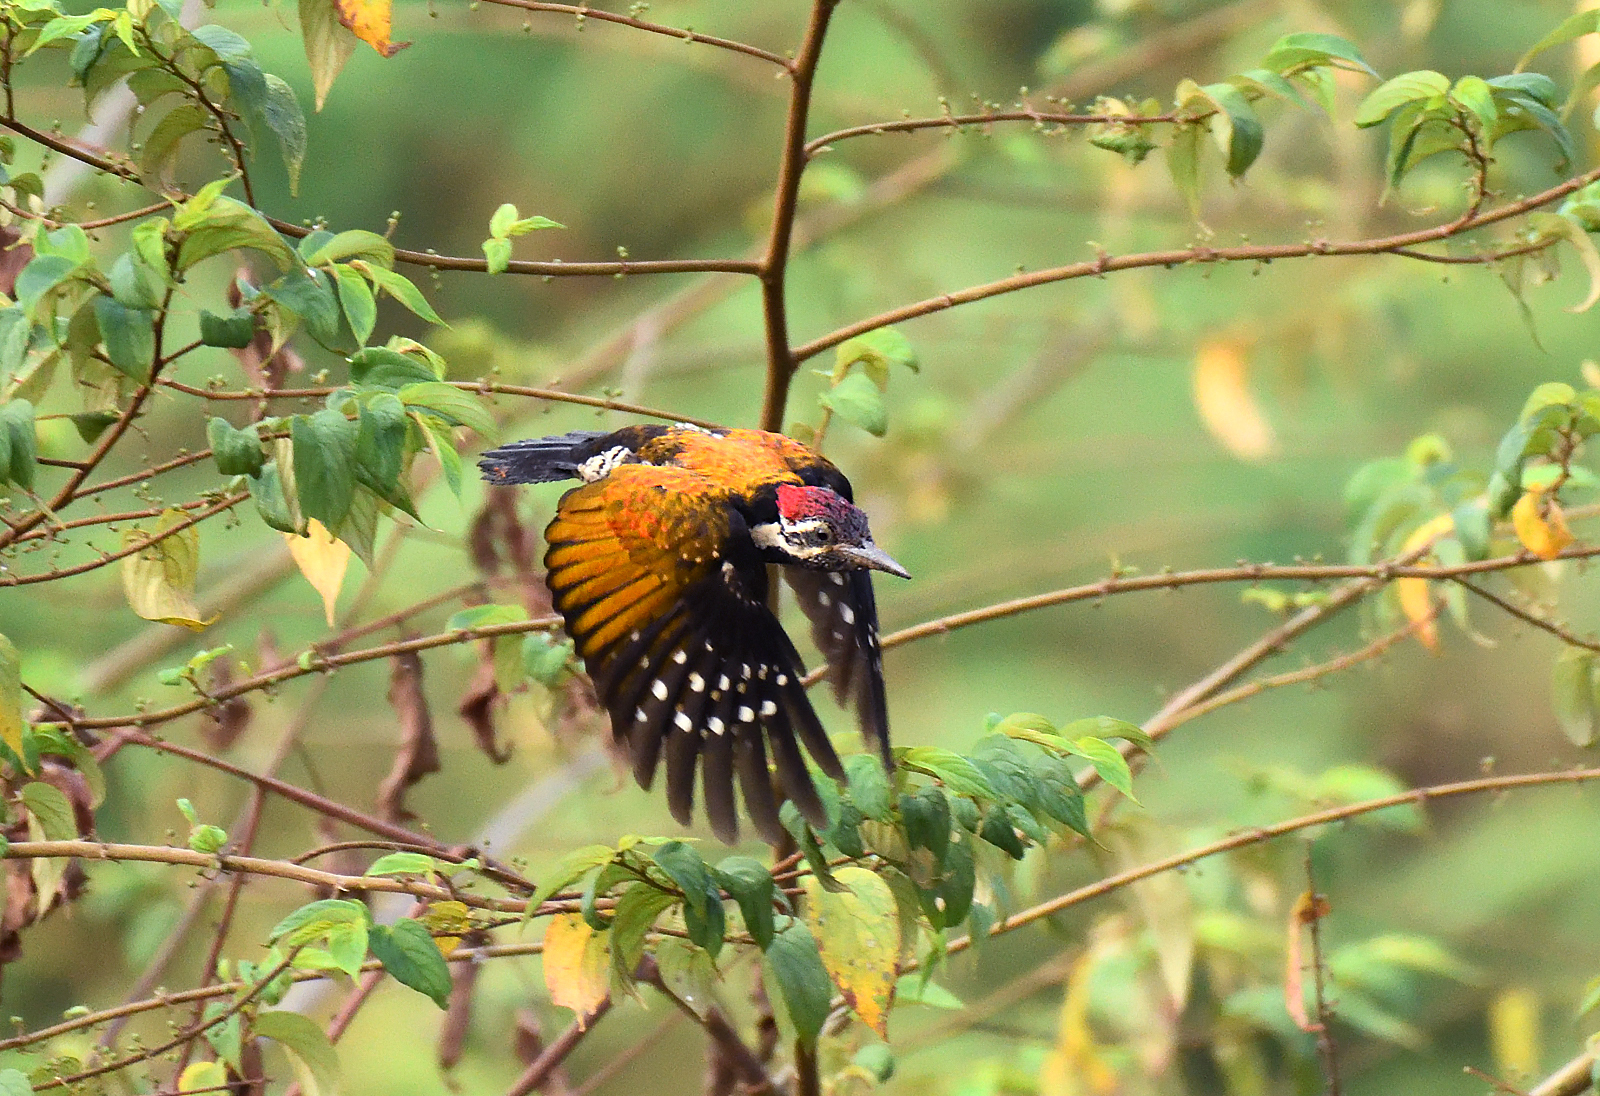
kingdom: Animalia
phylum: Chordata
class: Aves
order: Piciformes
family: Picidae
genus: Dinopium
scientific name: Dinopium benghalense
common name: Black-rumped flameback
